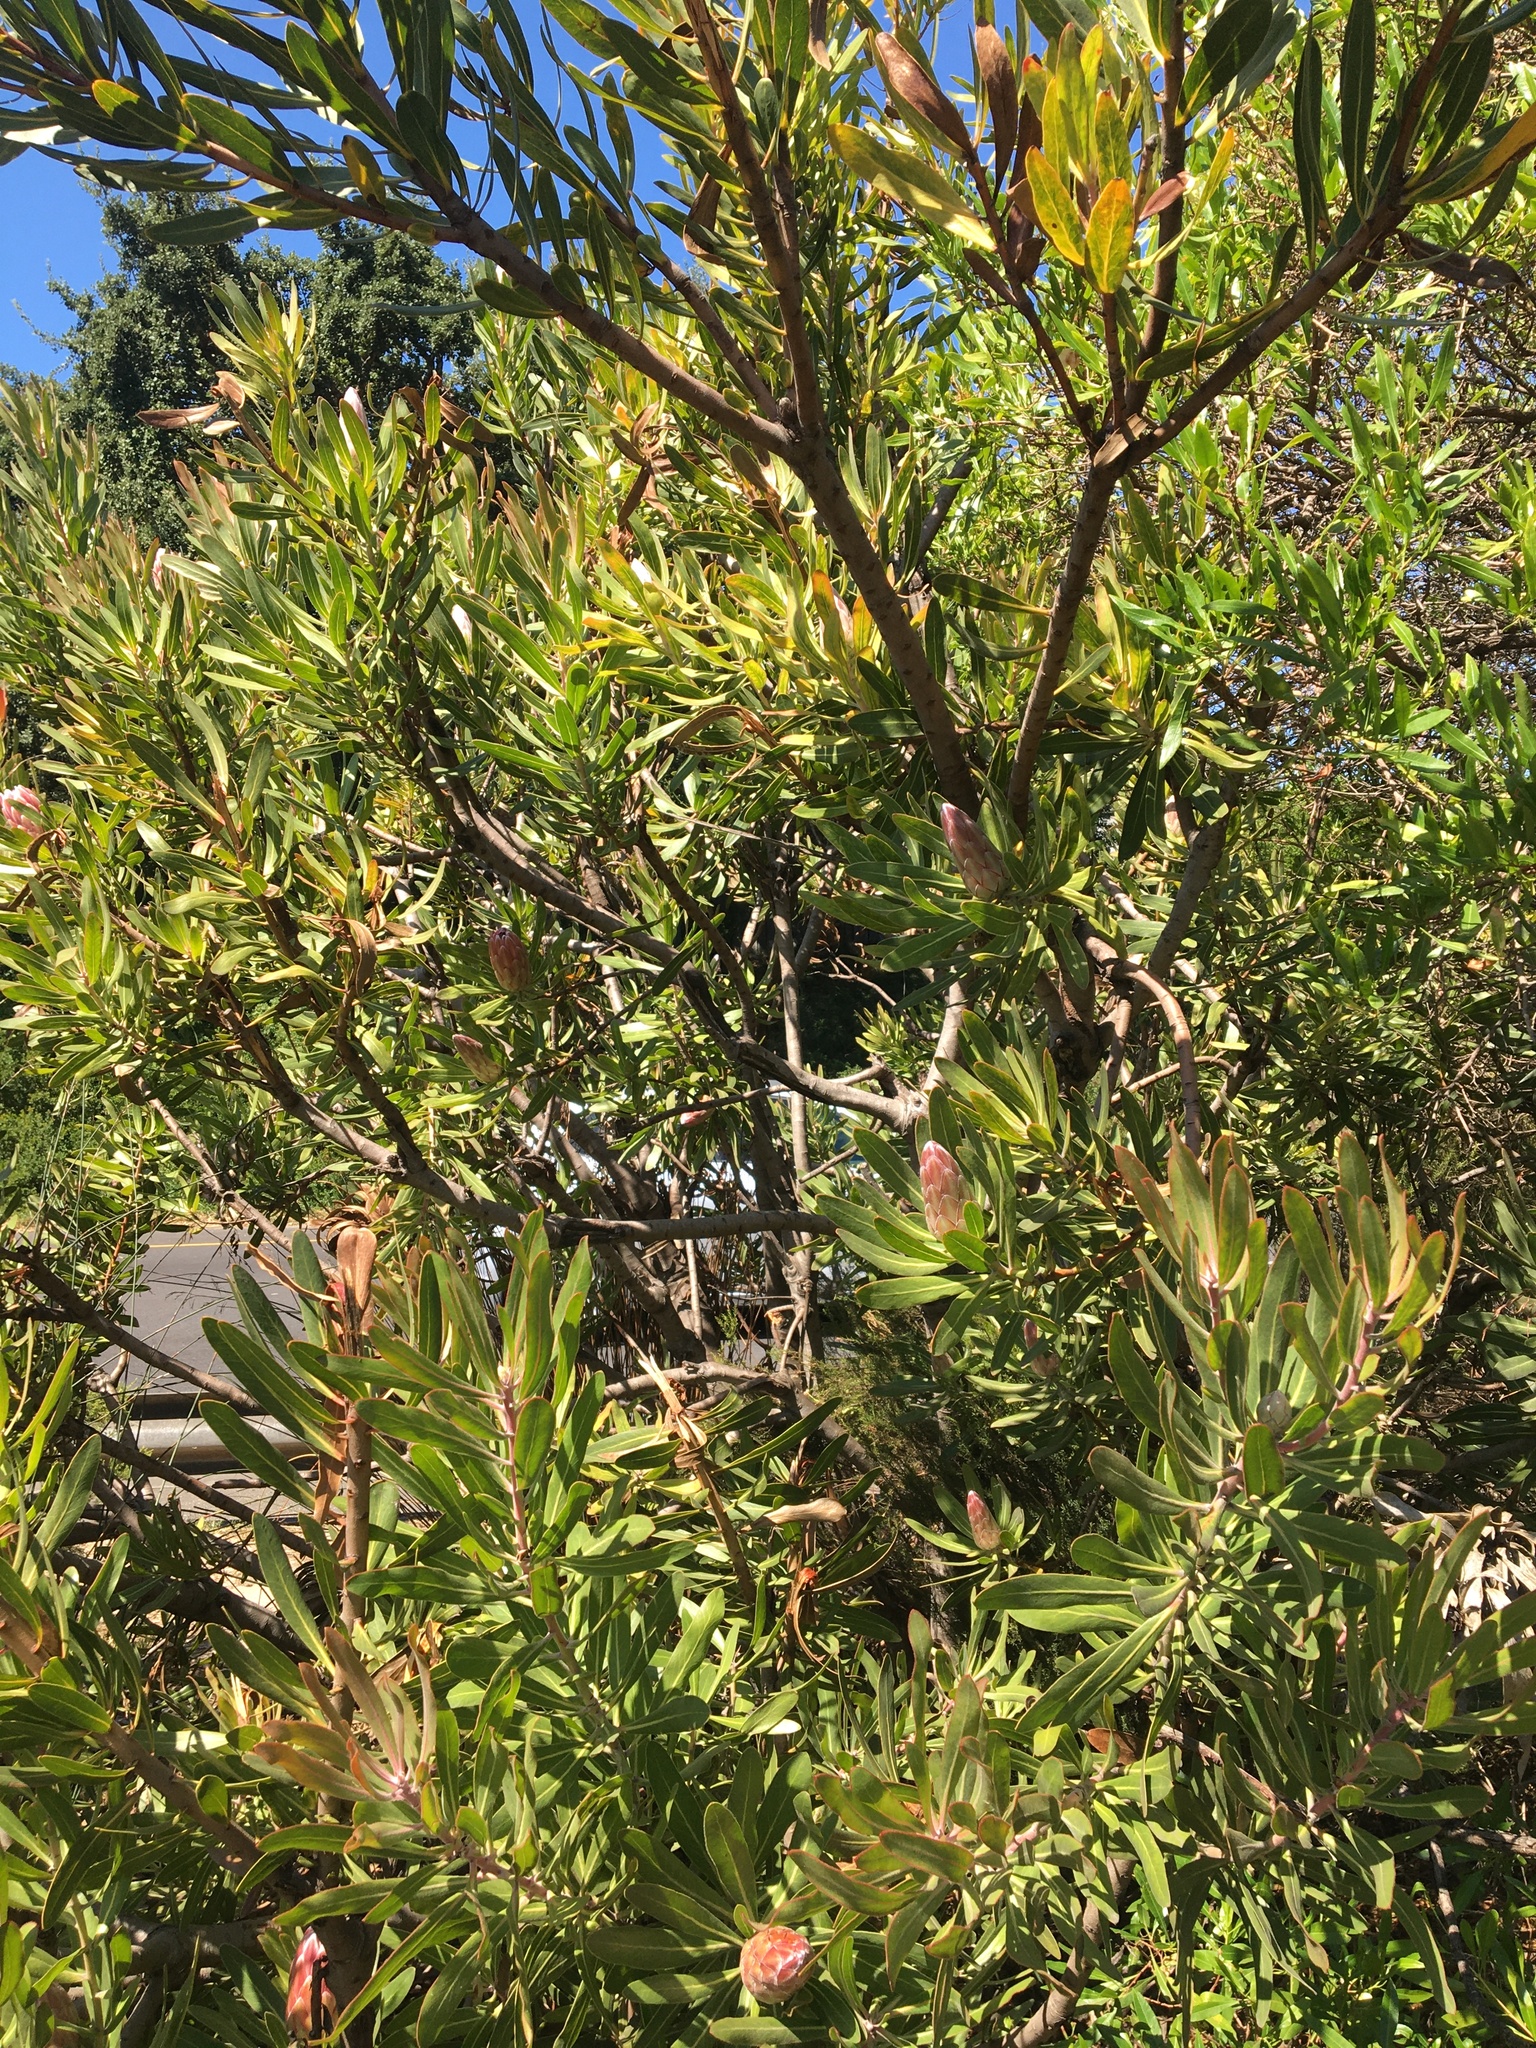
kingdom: Plantae
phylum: Tracheophyta
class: Magnoliopsida
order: Proteales
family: Proteaceae
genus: Protea
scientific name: Protea
